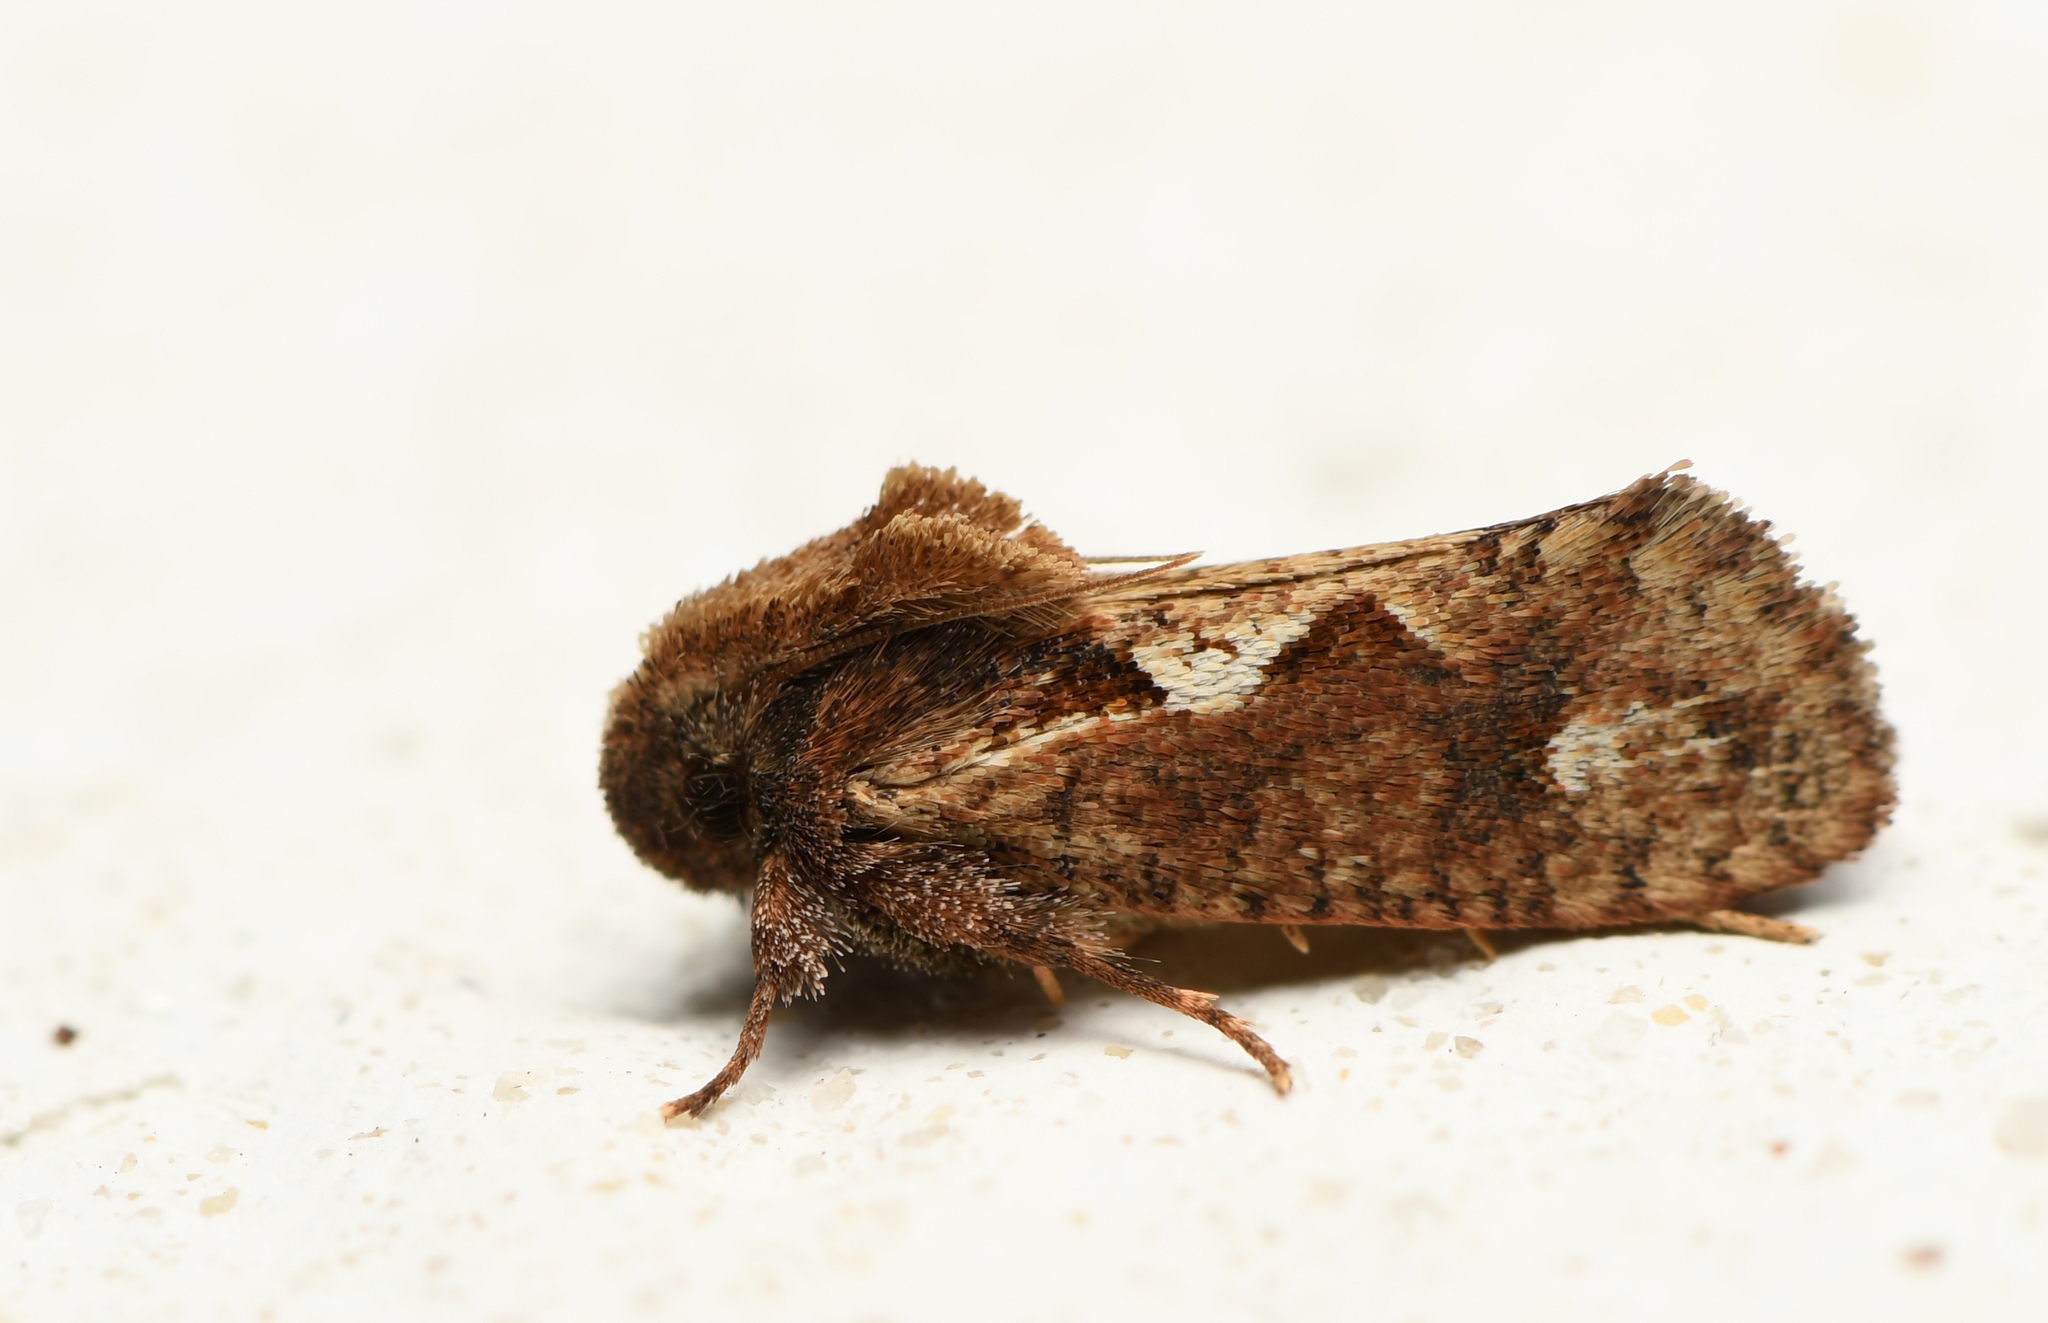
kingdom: Animalia
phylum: Arthropoda
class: Insecta
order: Lepidoptera
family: Tineidae
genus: Acrolophus
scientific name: Acrolophus walsinghami
